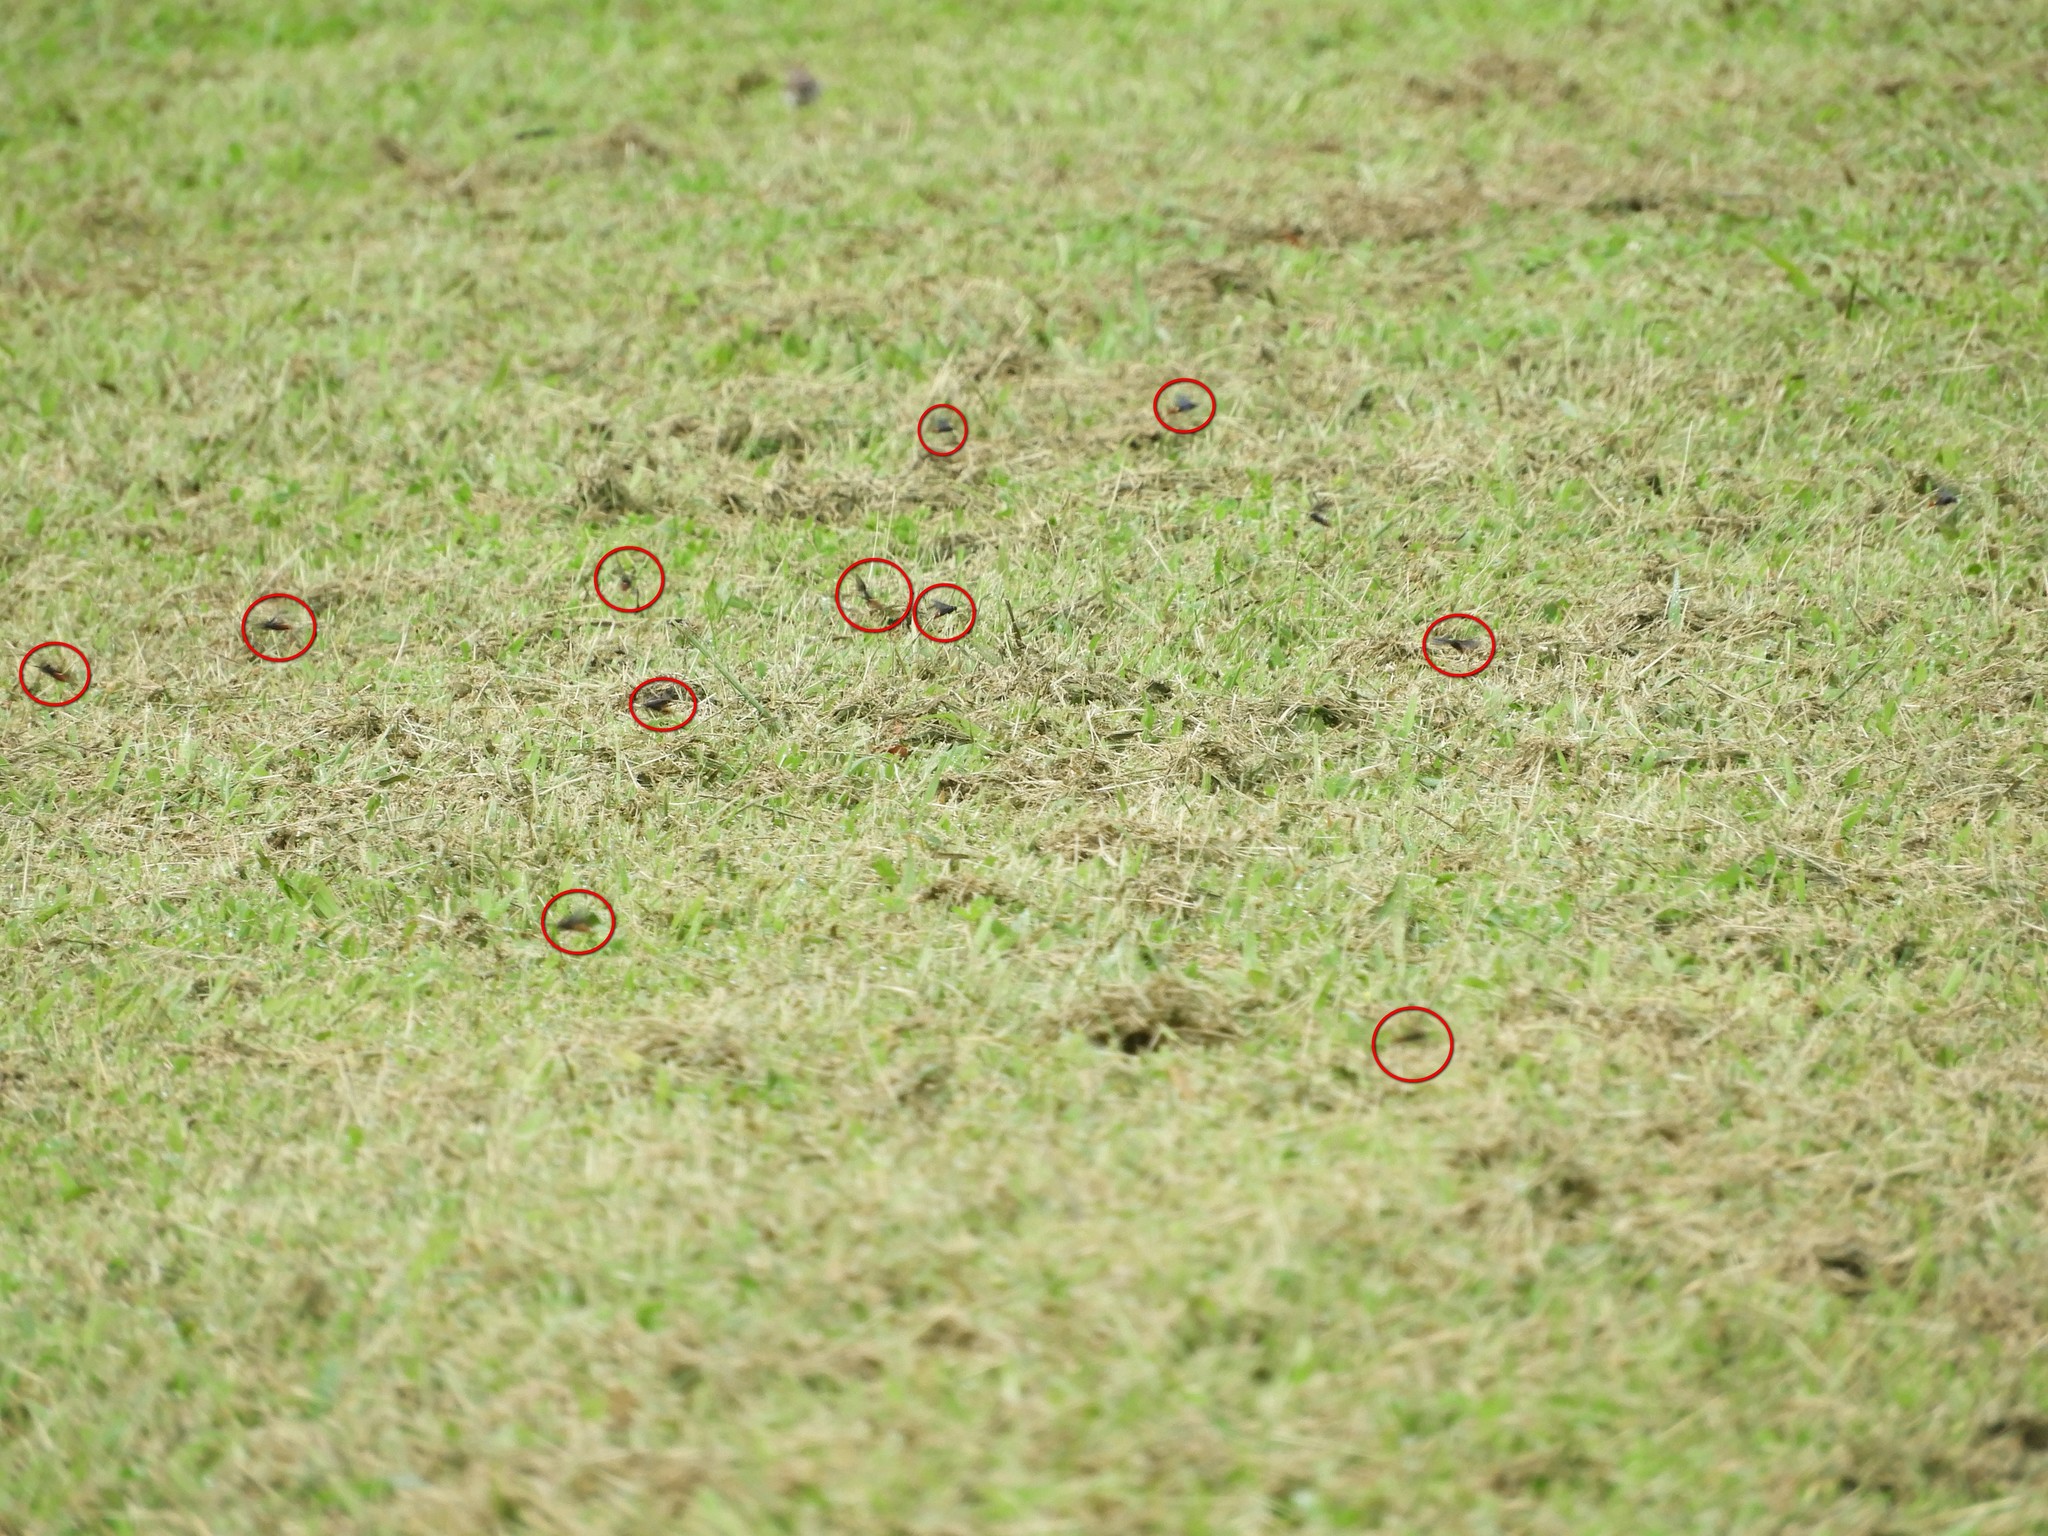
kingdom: Animalia
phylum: Arthropoda
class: Insecta
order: Hymenoptera
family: Scoliidae
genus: Scolia
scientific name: Scolia dubia
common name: Blue-winged scoliid wasp
